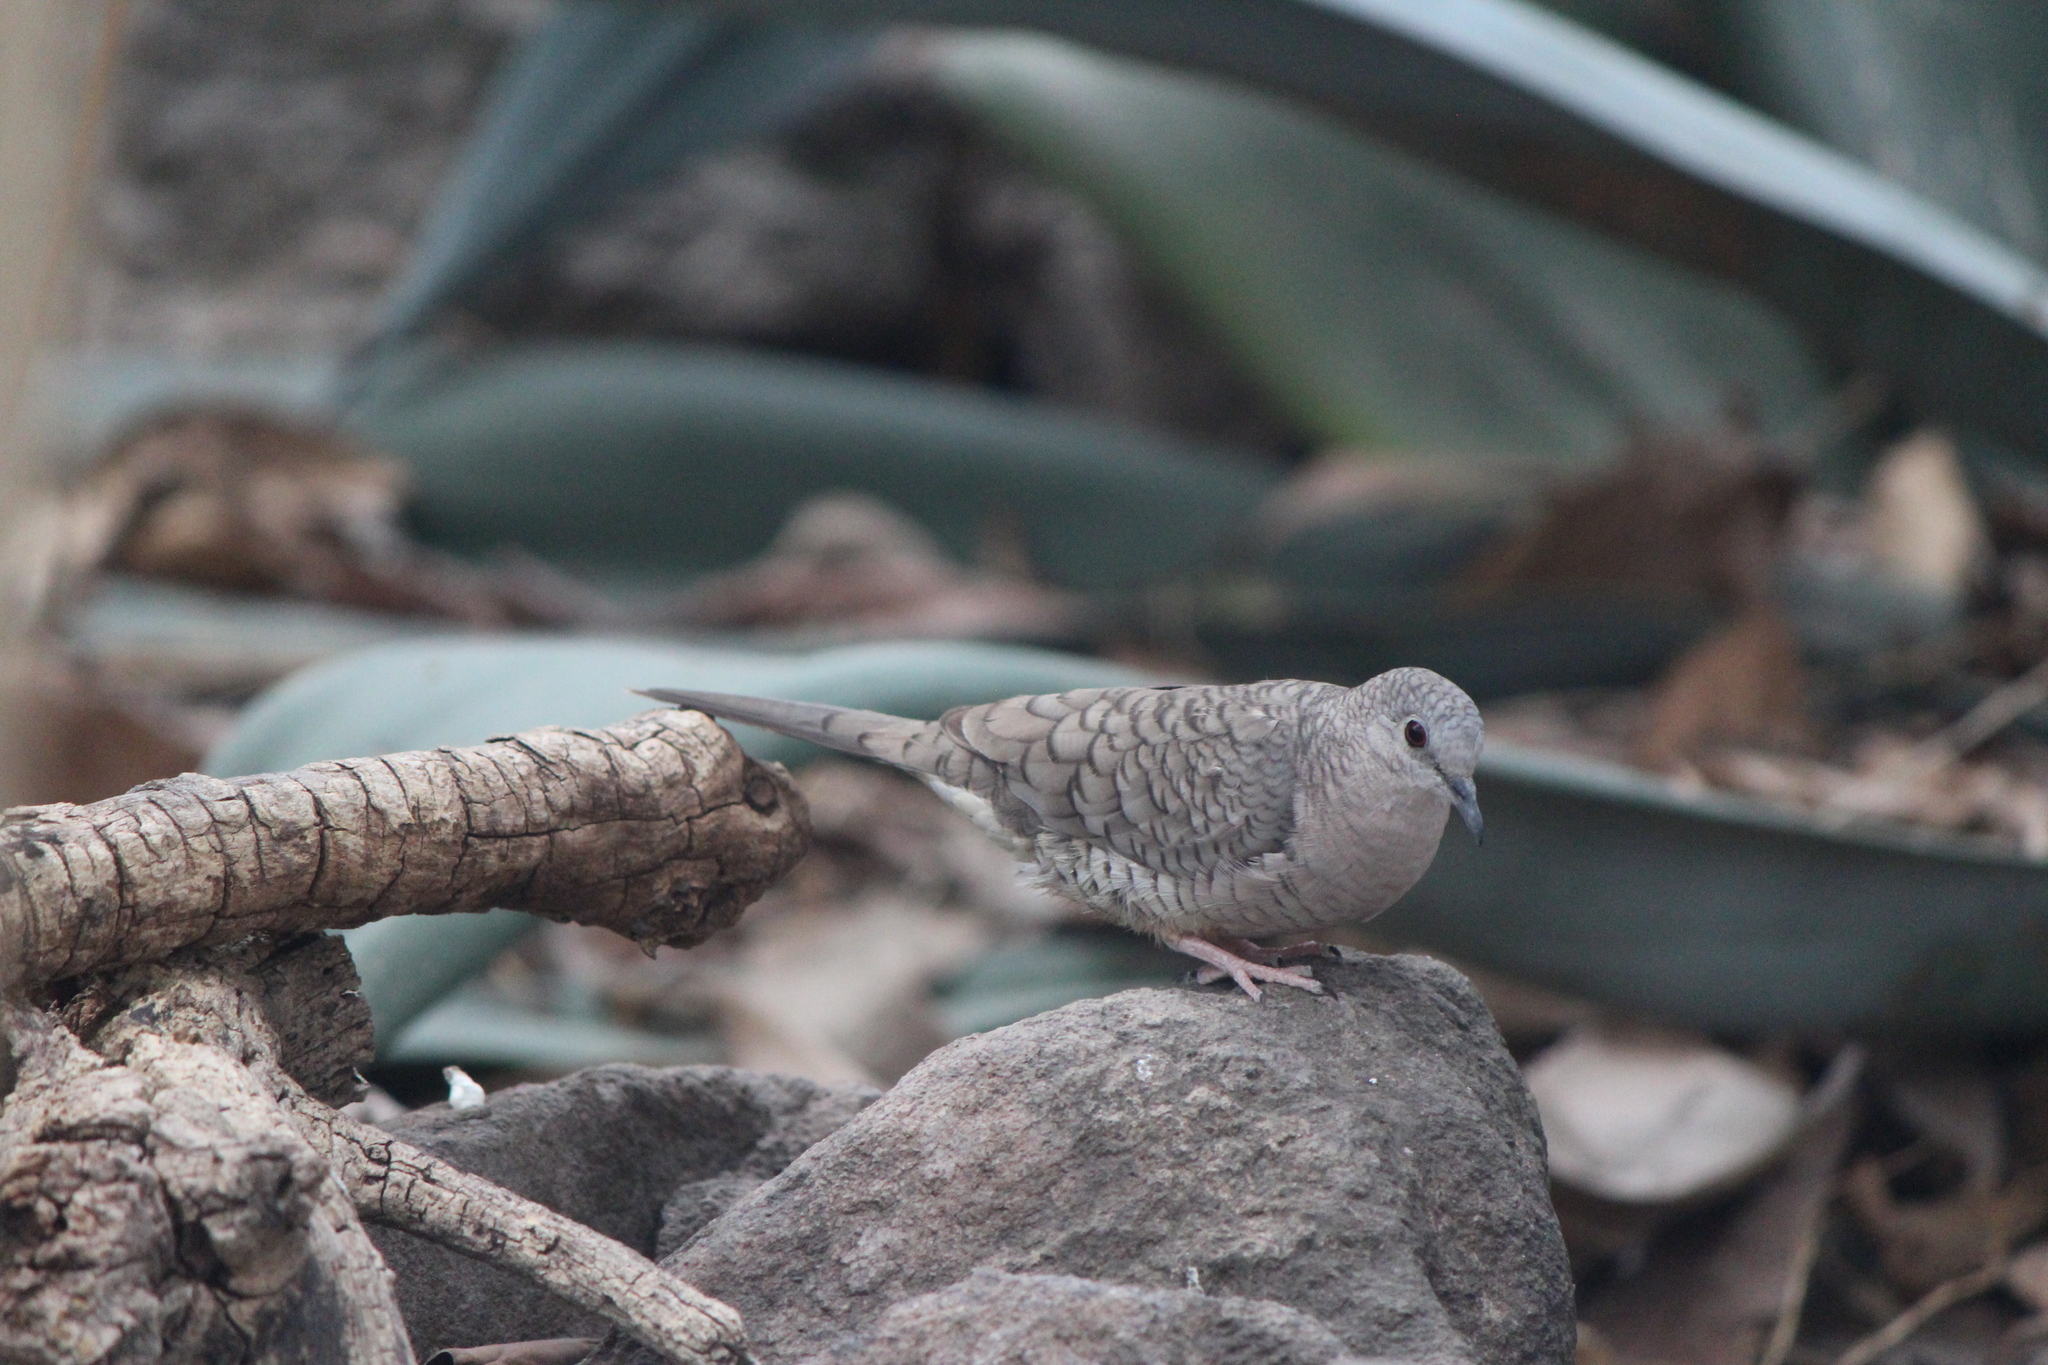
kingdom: Animalia
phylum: Chordata
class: Aves
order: Columbiformes
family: Columbidae
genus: Columbina
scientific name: Columbina inca
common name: Inca dove
